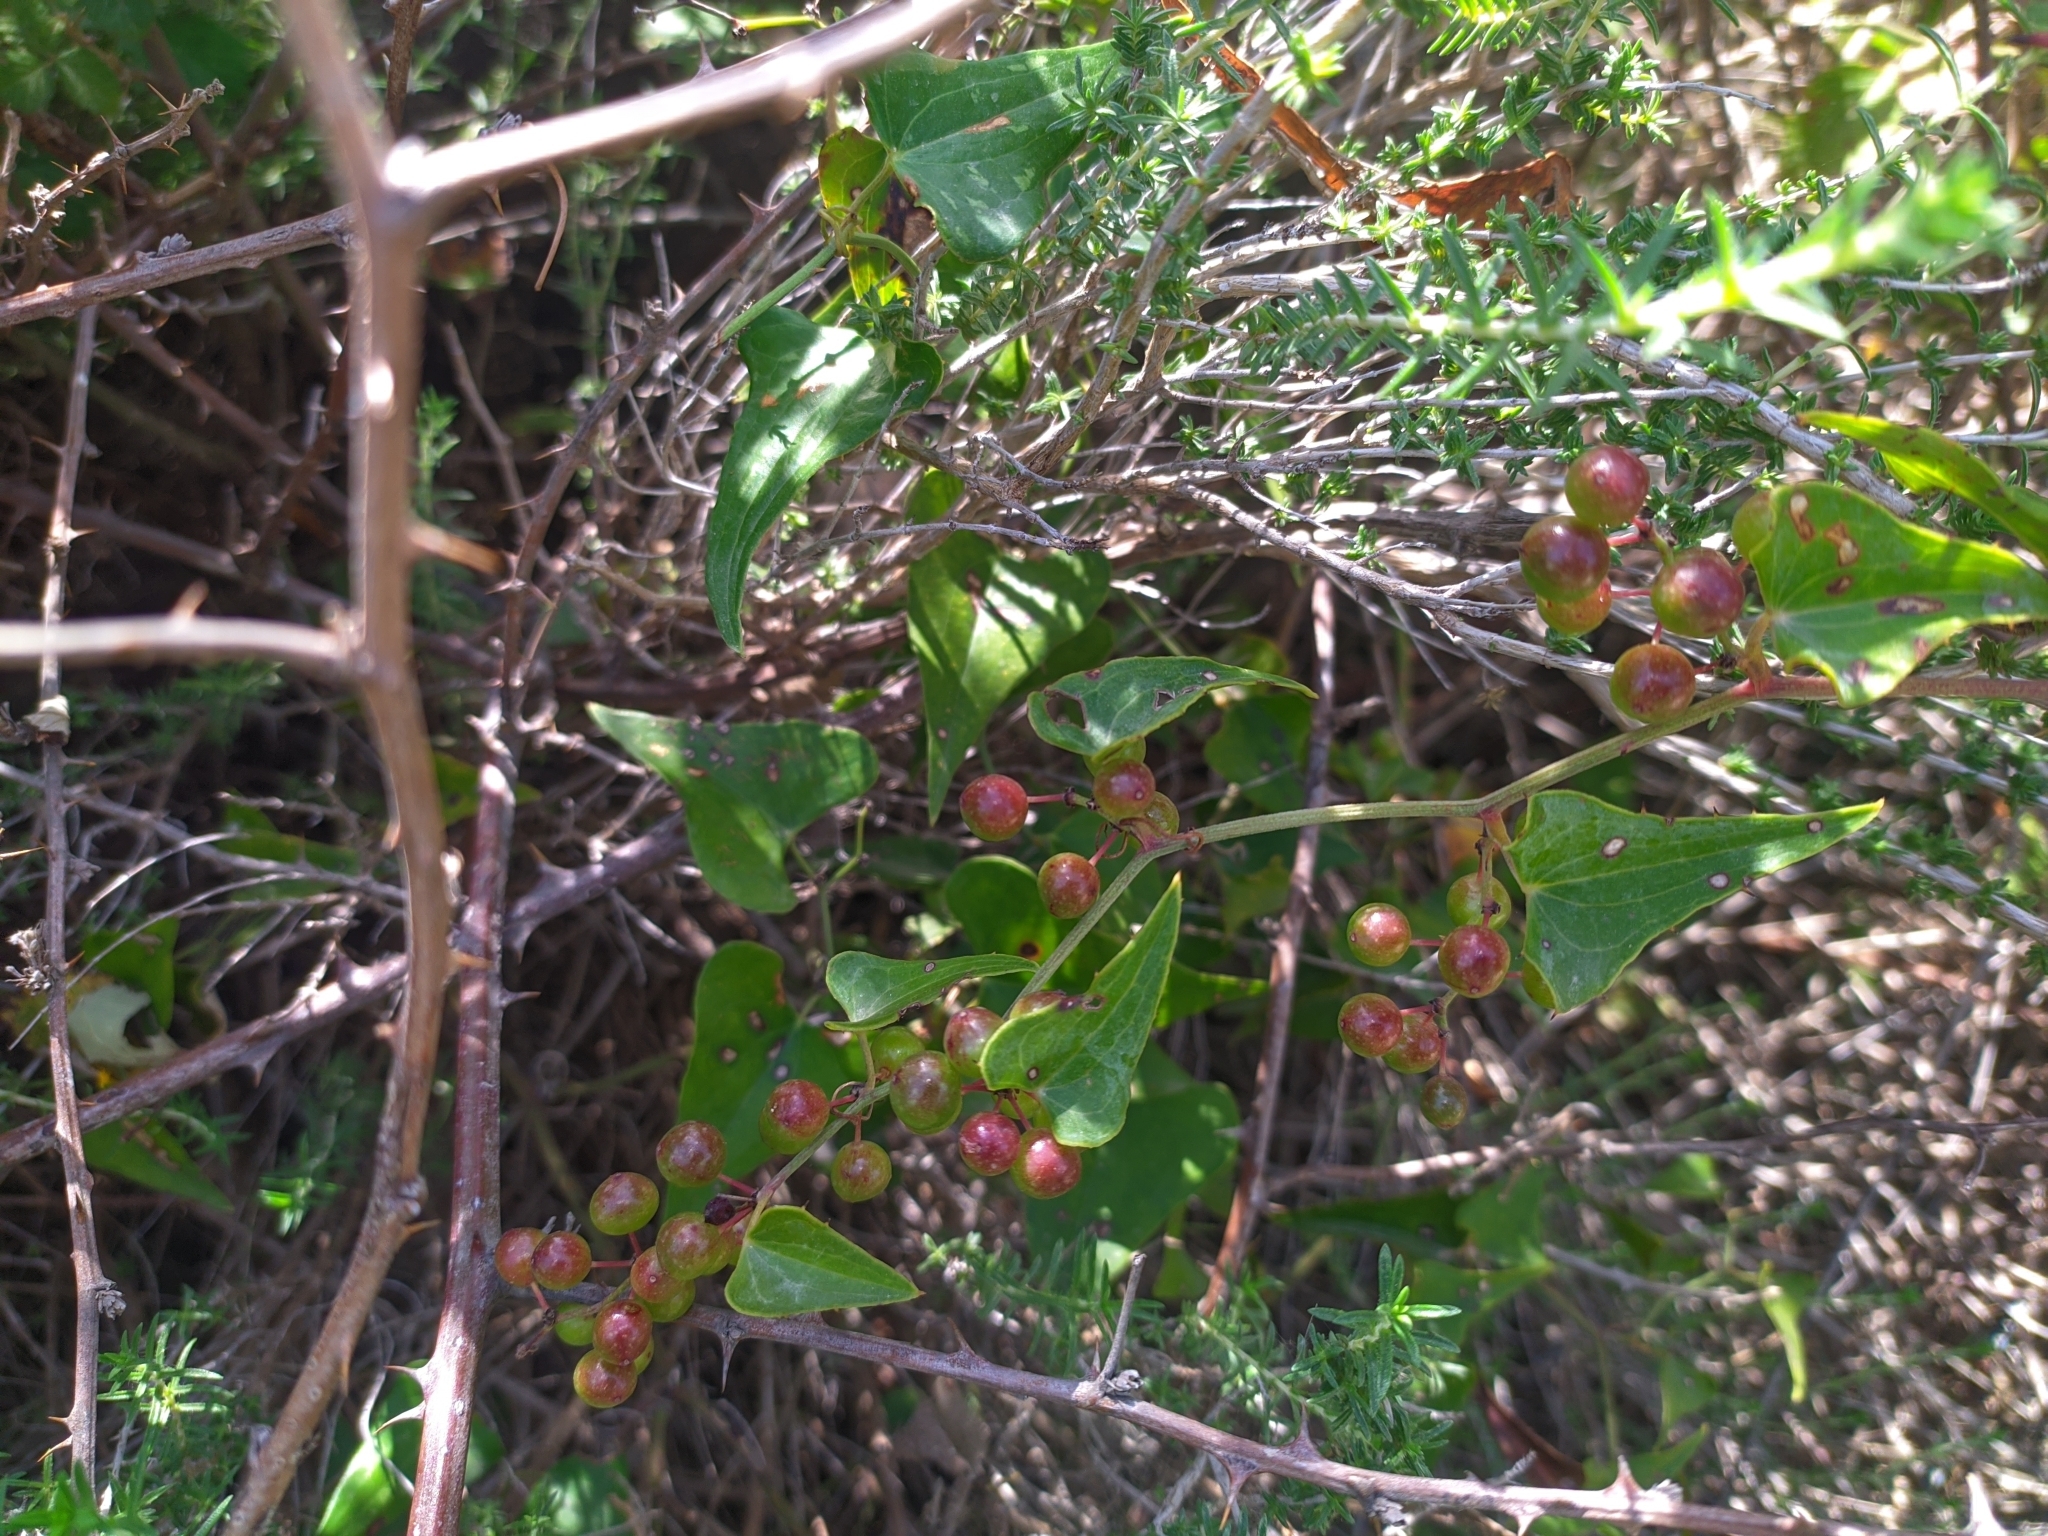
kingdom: Plantae
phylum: Tracheophyta
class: Liliopsida
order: Liliales
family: Smilacaceae
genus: Smilax
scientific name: Smilax aspera
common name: Common smilax
